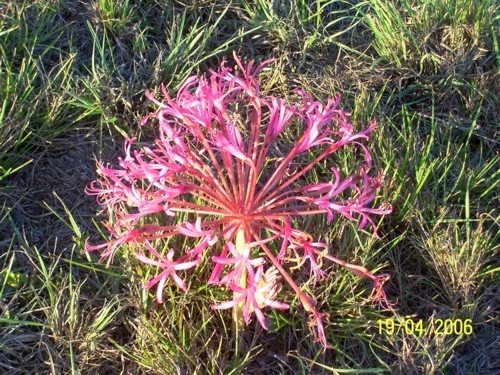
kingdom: Plantae
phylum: Tracheophyta
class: Liliopsida
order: Asparagales
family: Amaryllidaceae
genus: Brunsvigia
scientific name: Brunsvigia gregaria
